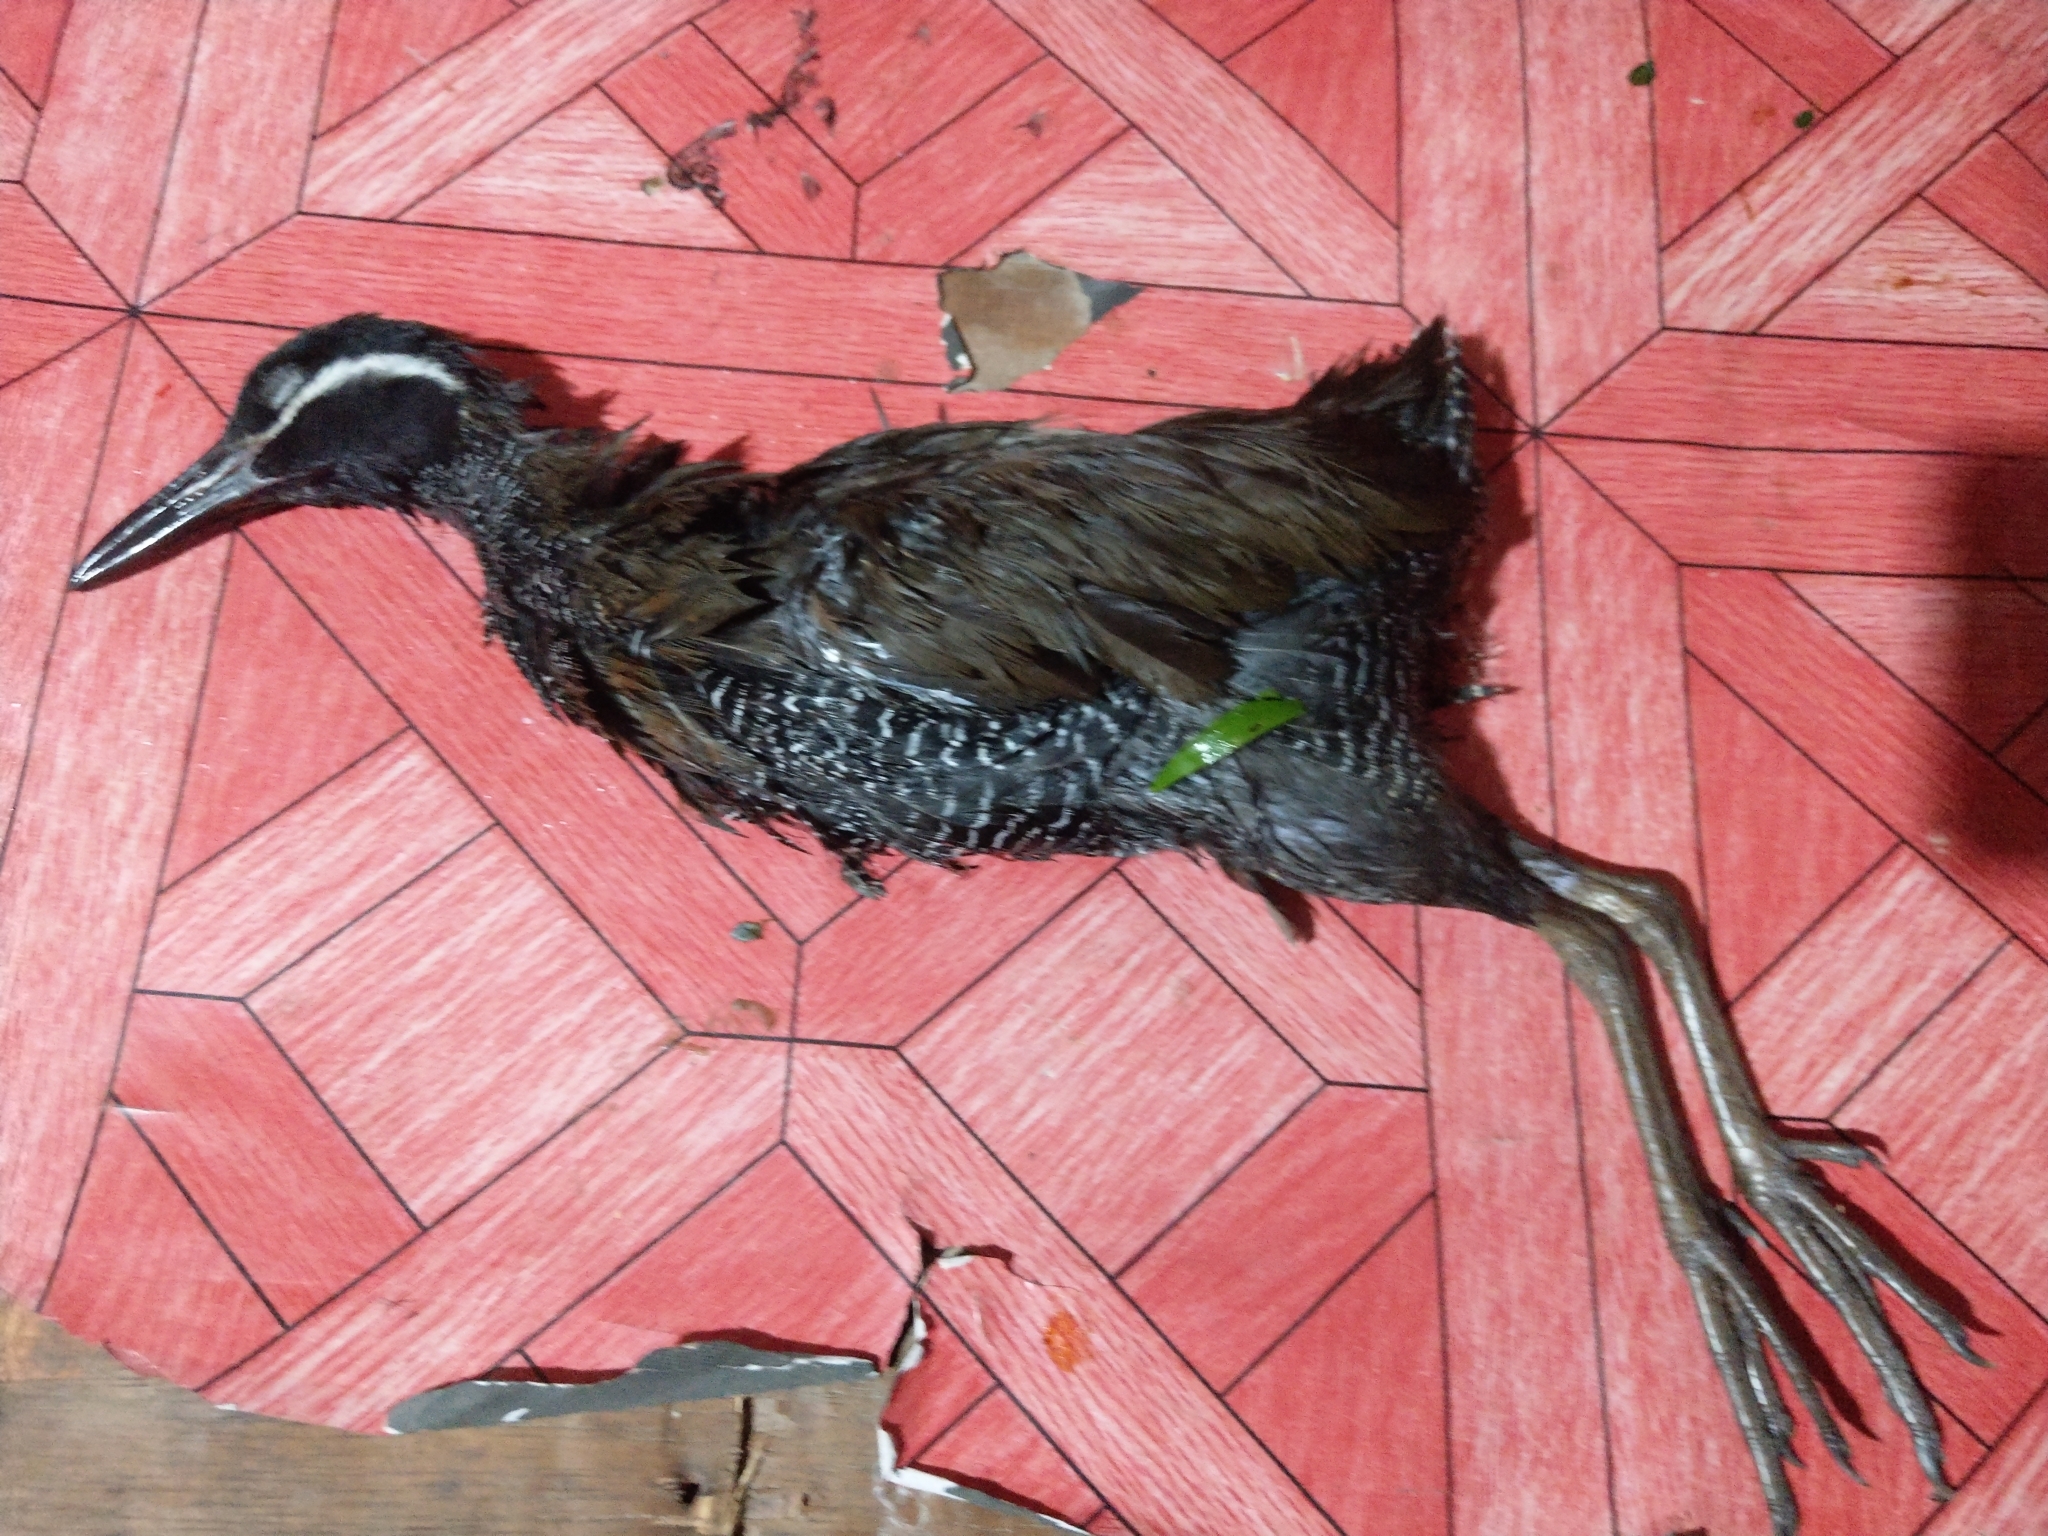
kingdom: Animalia
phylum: Chordata
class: Aves
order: Gruiformes
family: Rallidae
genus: Gallirallus
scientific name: Gallirallus torquatus
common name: Barred rail
